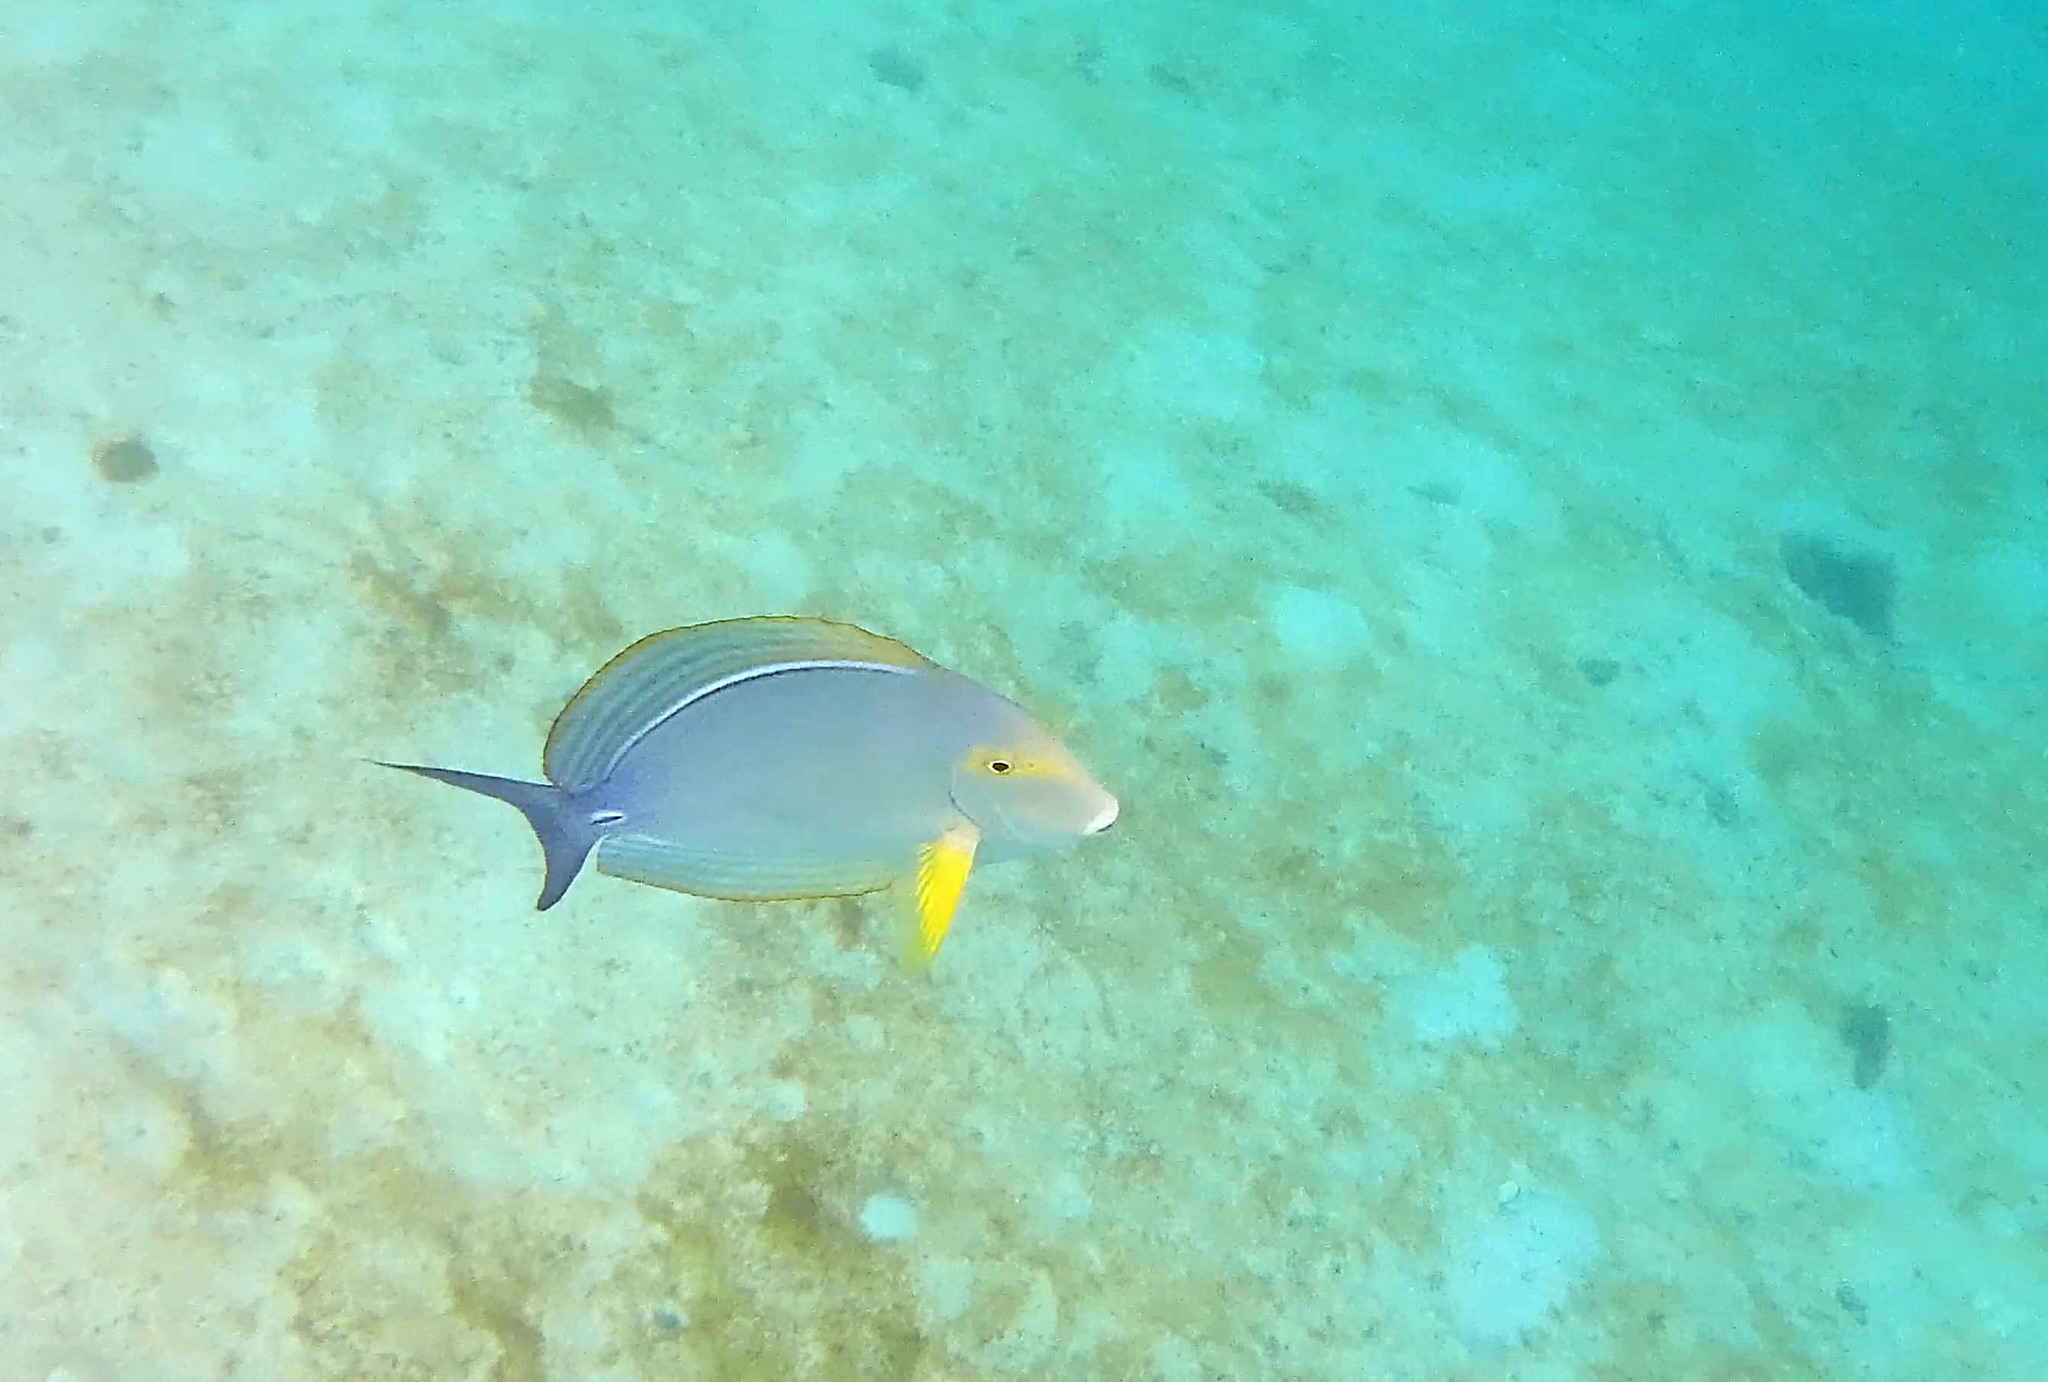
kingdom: Animalia
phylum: Chordata
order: Perciformes
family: Acanthuridae
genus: Acanthurus
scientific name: Acanthurus xanthopterus
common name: Cuvier's surgeonfish
